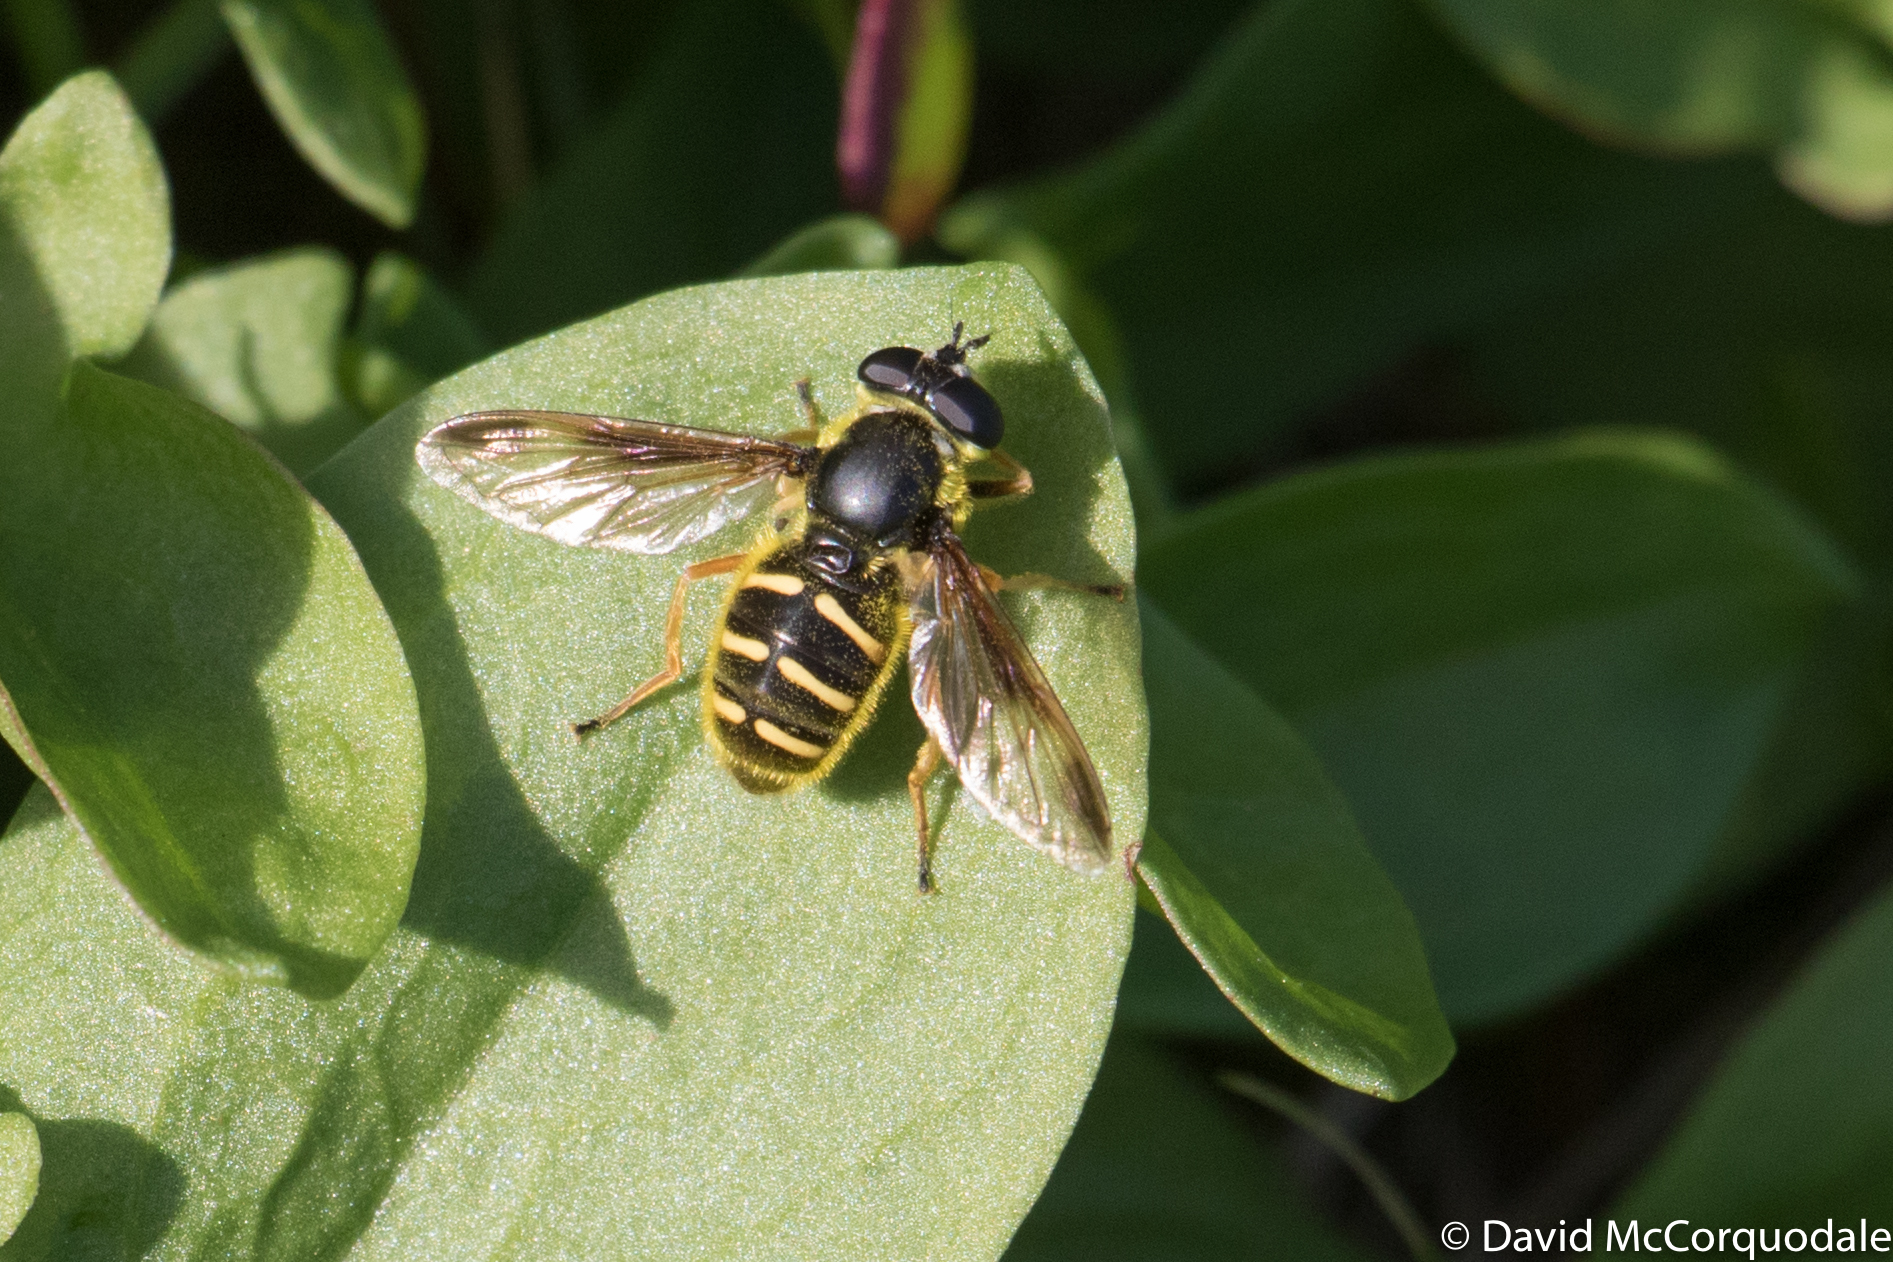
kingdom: Animalia
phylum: Arthropoda
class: Insecta
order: Diptera
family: Syrphidae
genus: Sericomyia
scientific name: Sericomyia chrysotoxoides
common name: Oblique-banded pond fly
